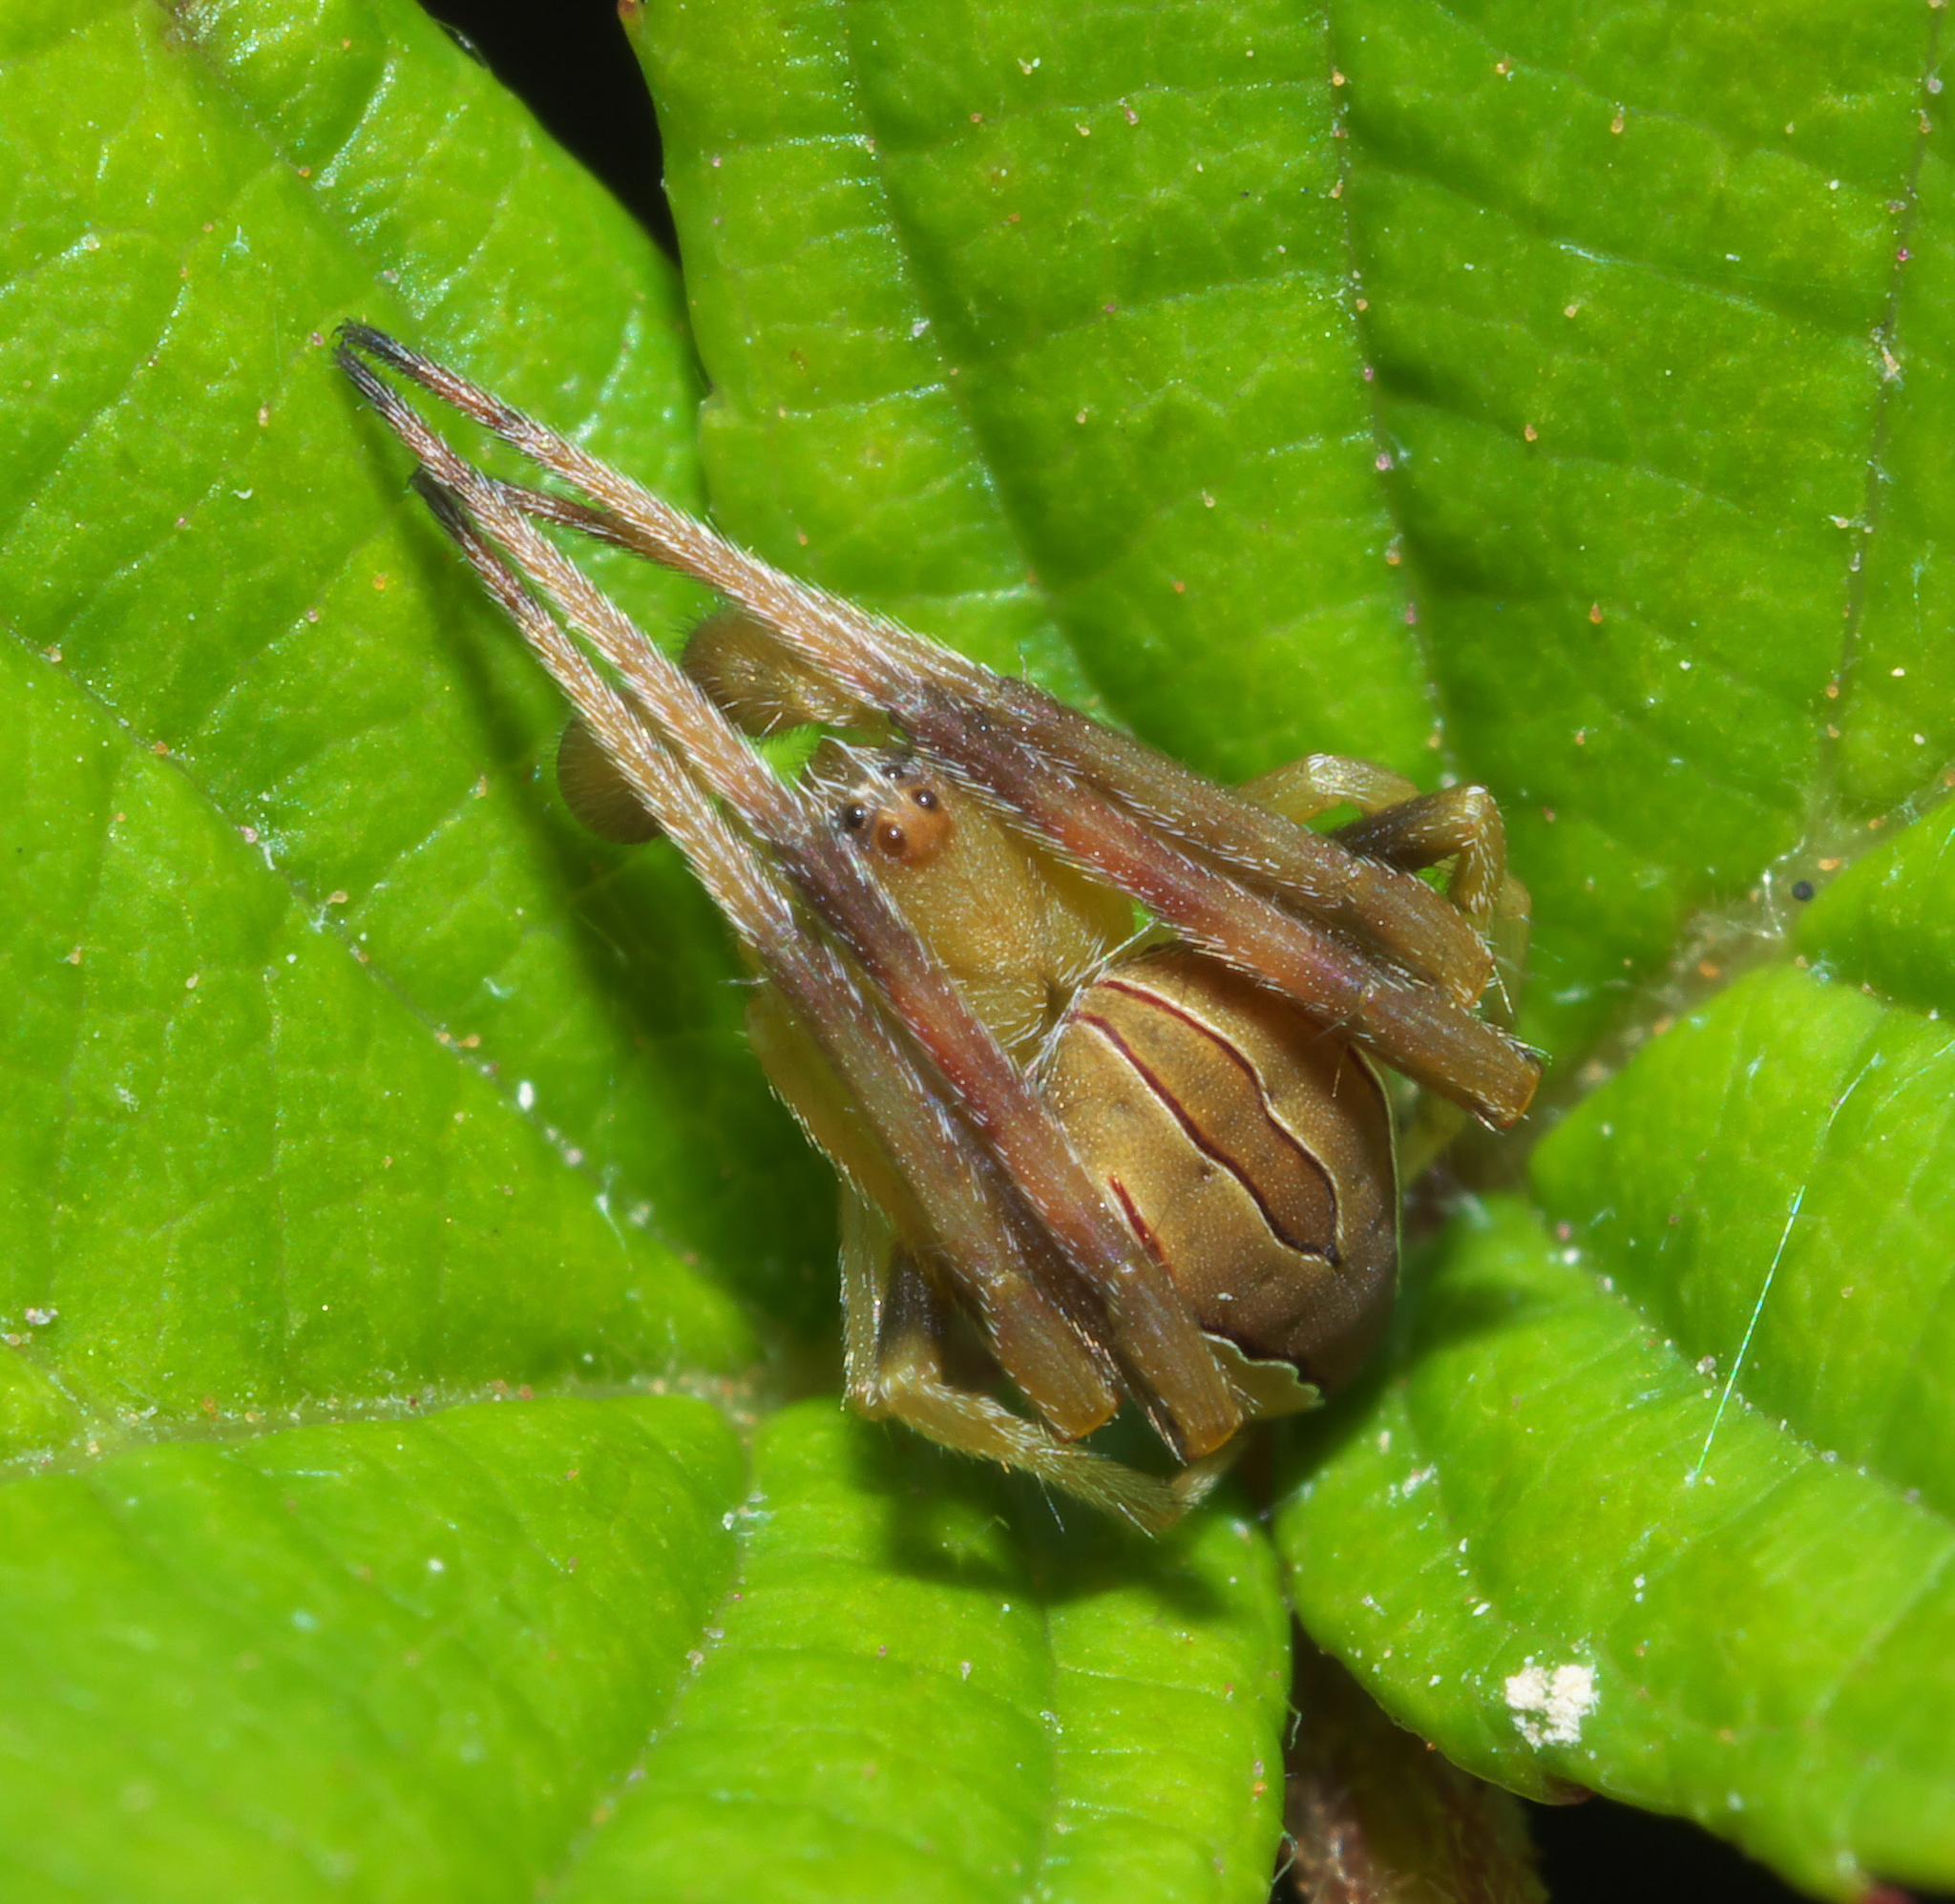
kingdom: Animalia
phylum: Arthropoda
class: Arachnida
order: Araneae
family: Araneidae
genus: Acacesia
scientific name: Acacesia hamata
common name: Orb weavers
